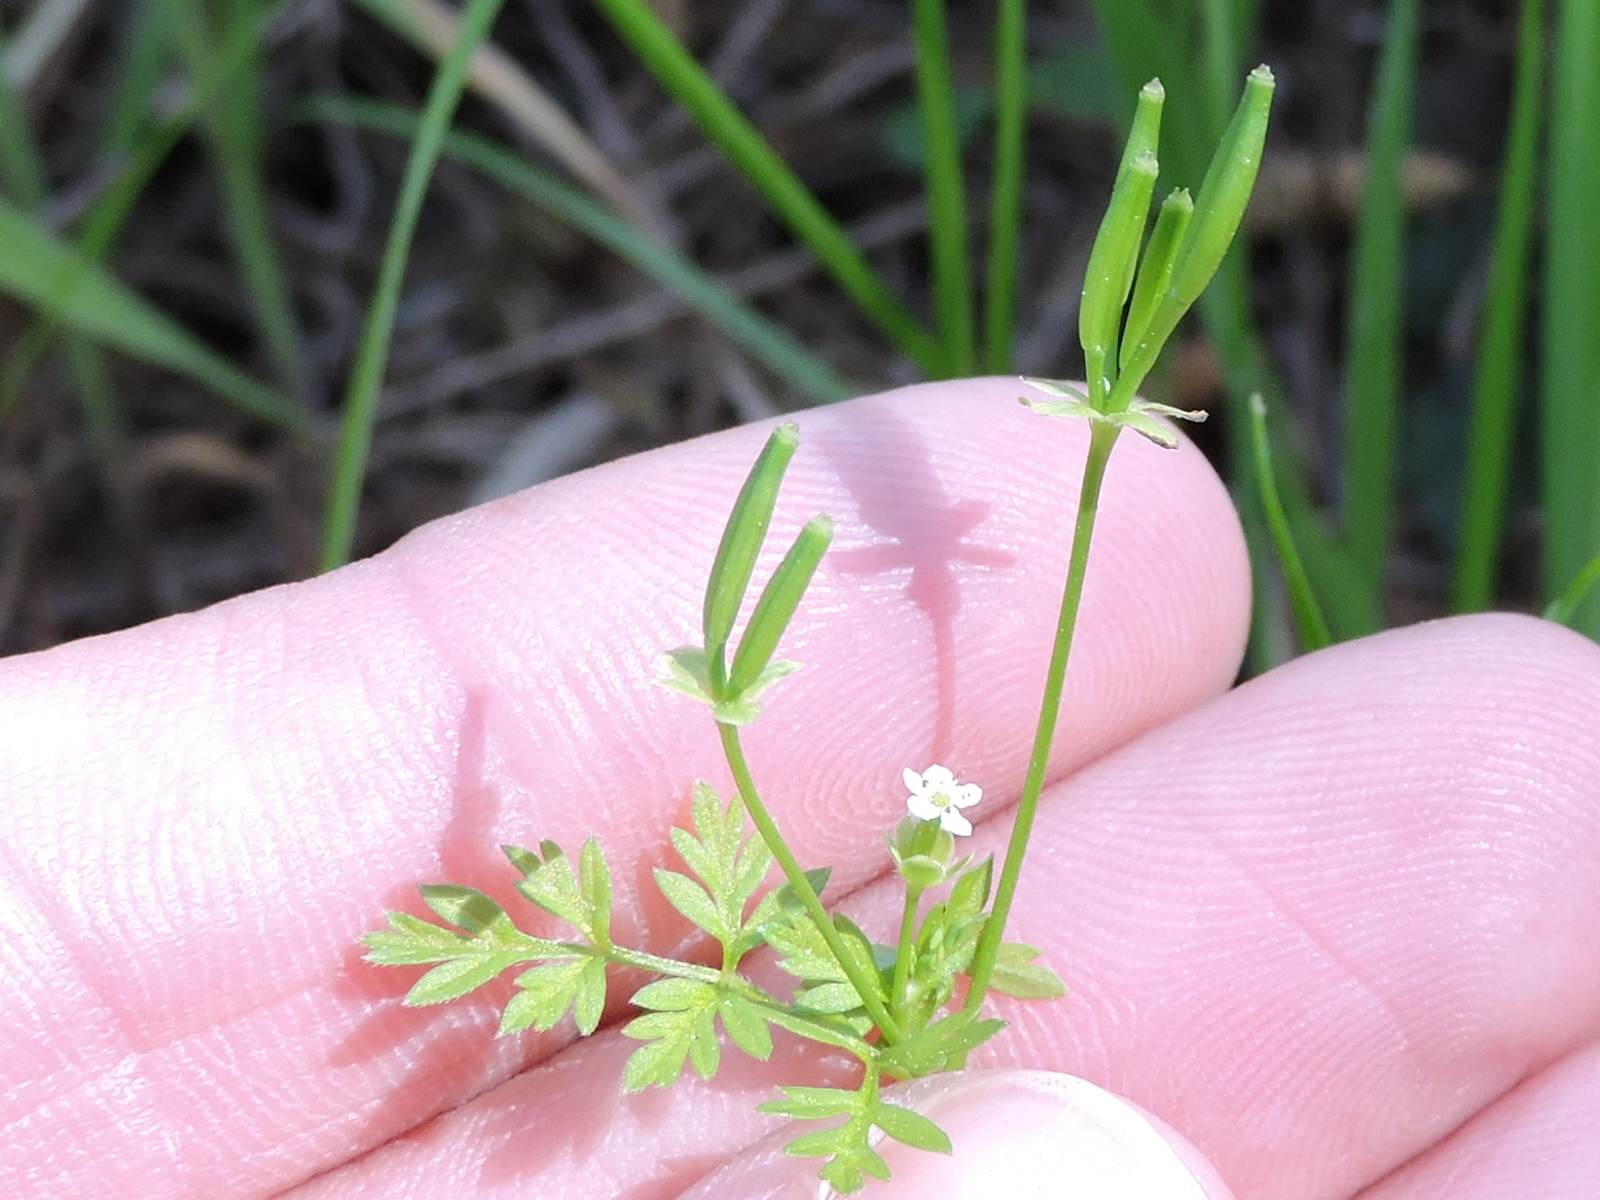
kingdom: Plantae
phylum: Tracheophyta
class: Magnoliopsida
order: Apiales
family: Apiaceae
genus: Chaerophyllum
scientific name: Chaerophyllum tainturieri
